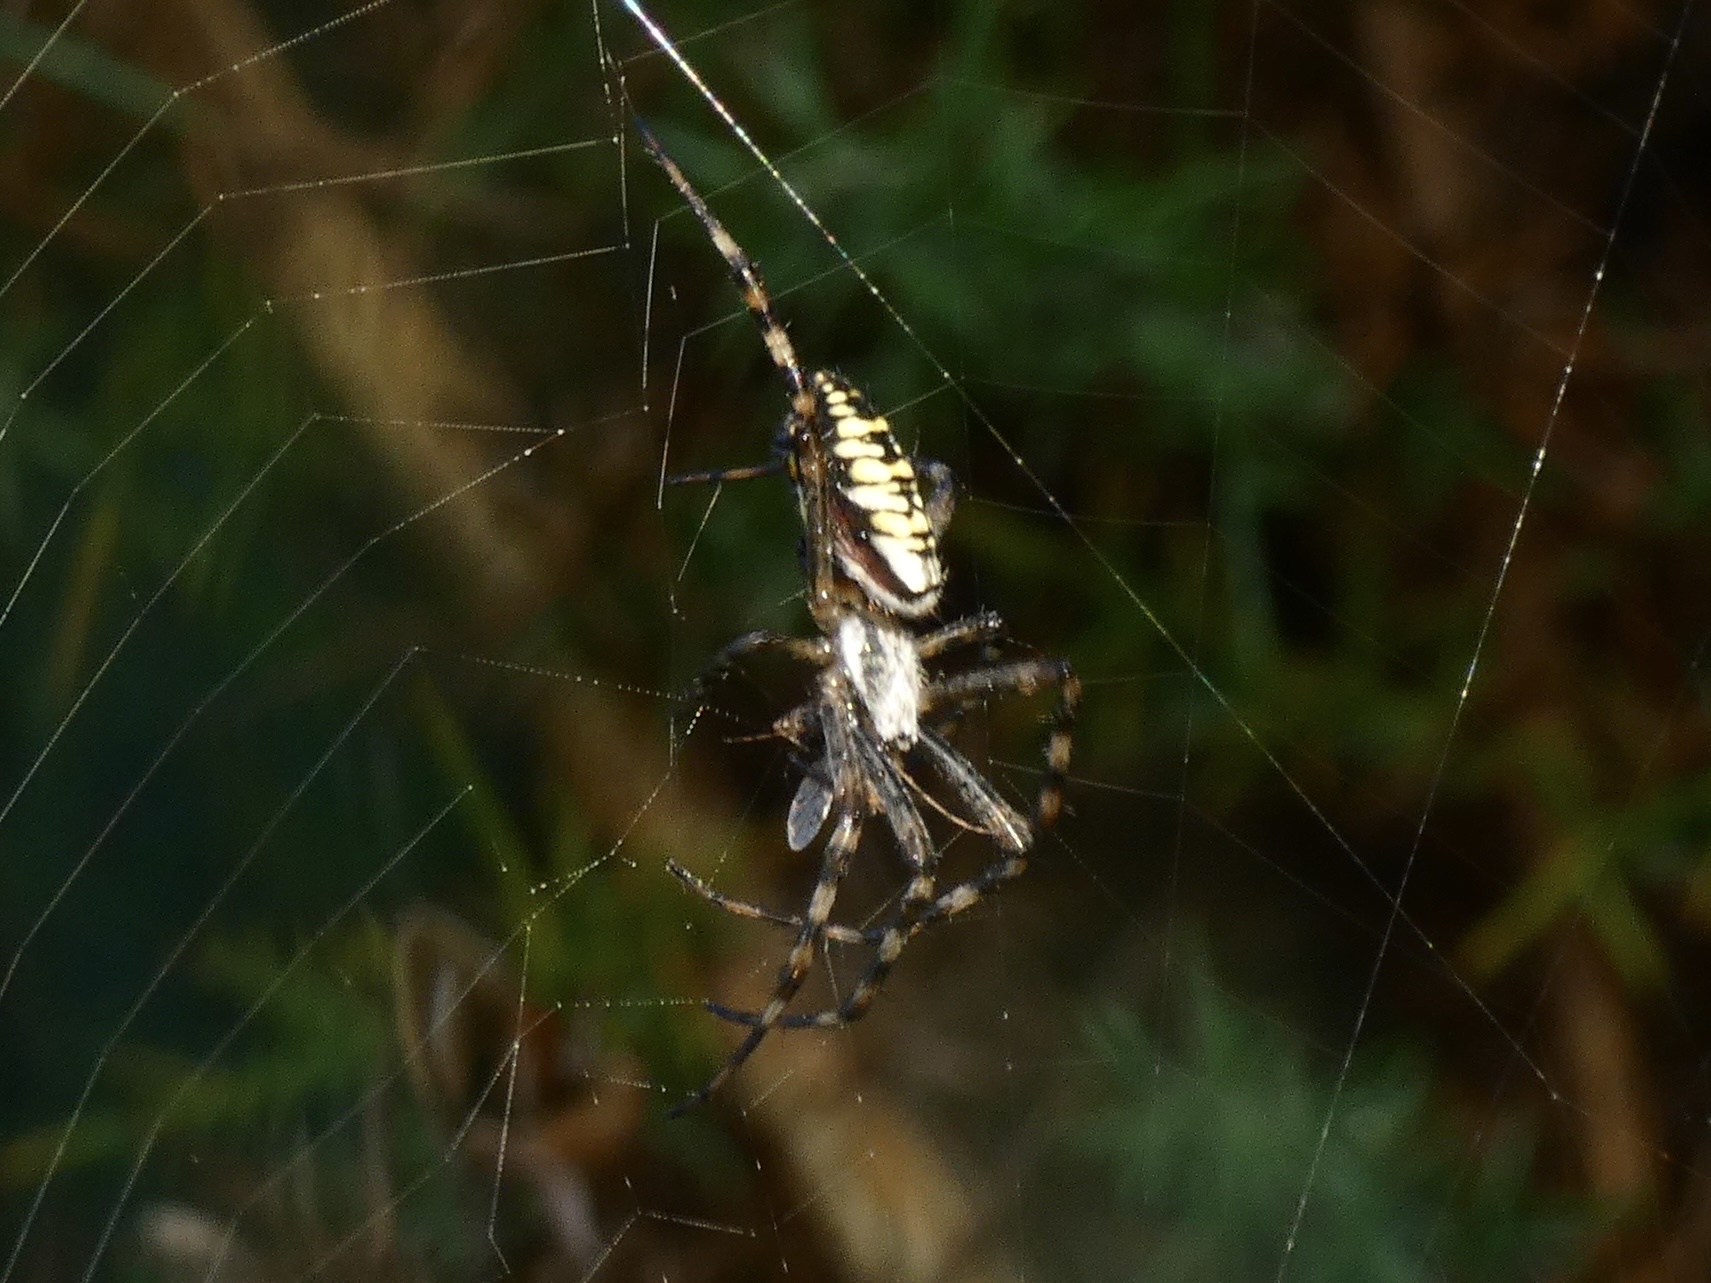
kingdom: Animalia
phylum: Arthropoda
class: Arachnida
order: Araneae
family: Araneidae
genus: Argiope
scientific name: Argiope bruennichi
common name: Wasp spider
